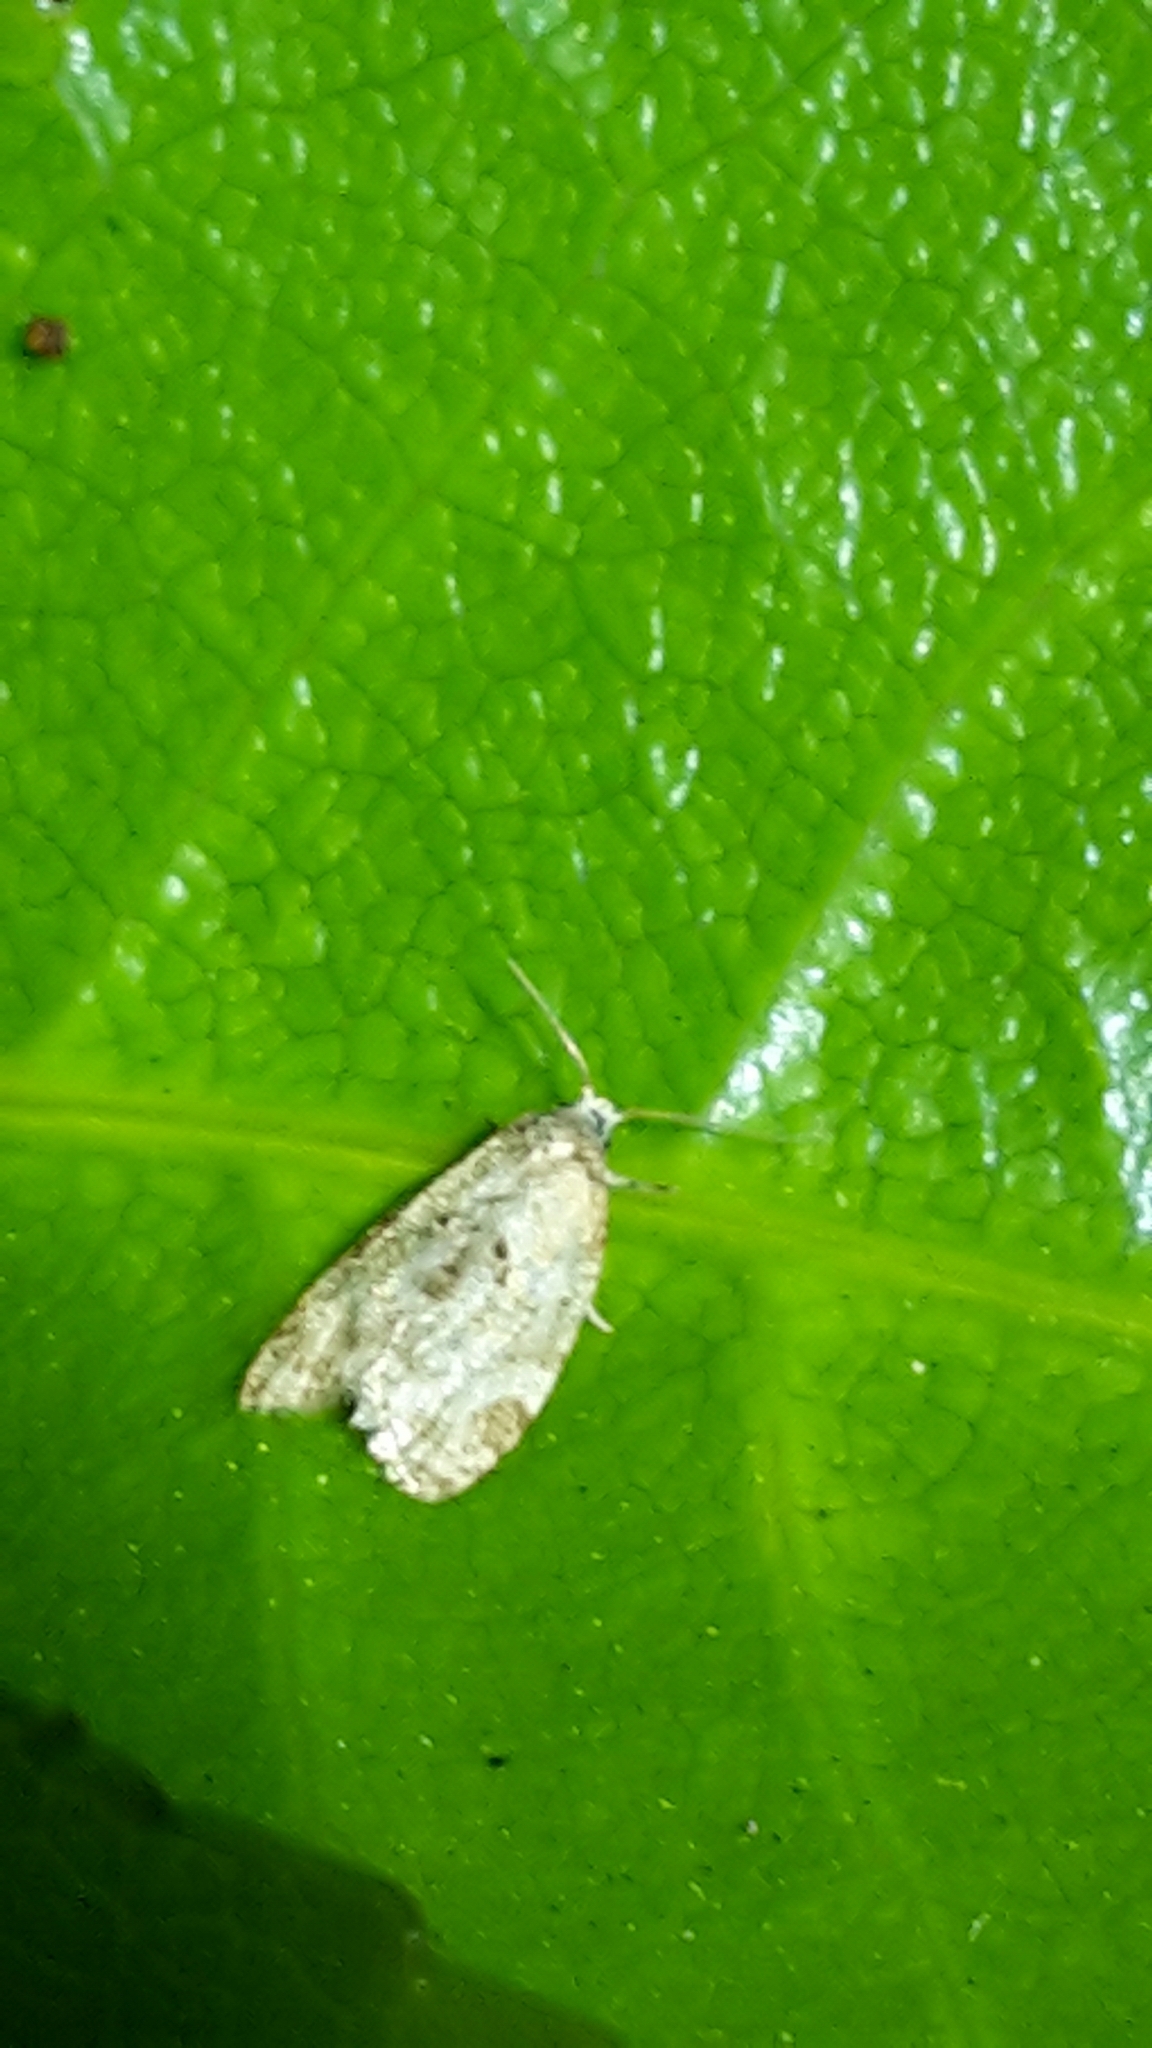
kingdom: Animalia
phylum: Arthropoda
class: Insecta
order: Lepidoptera
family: Tortricidae
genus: Dipterina
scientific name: Dipterina imbriferana
